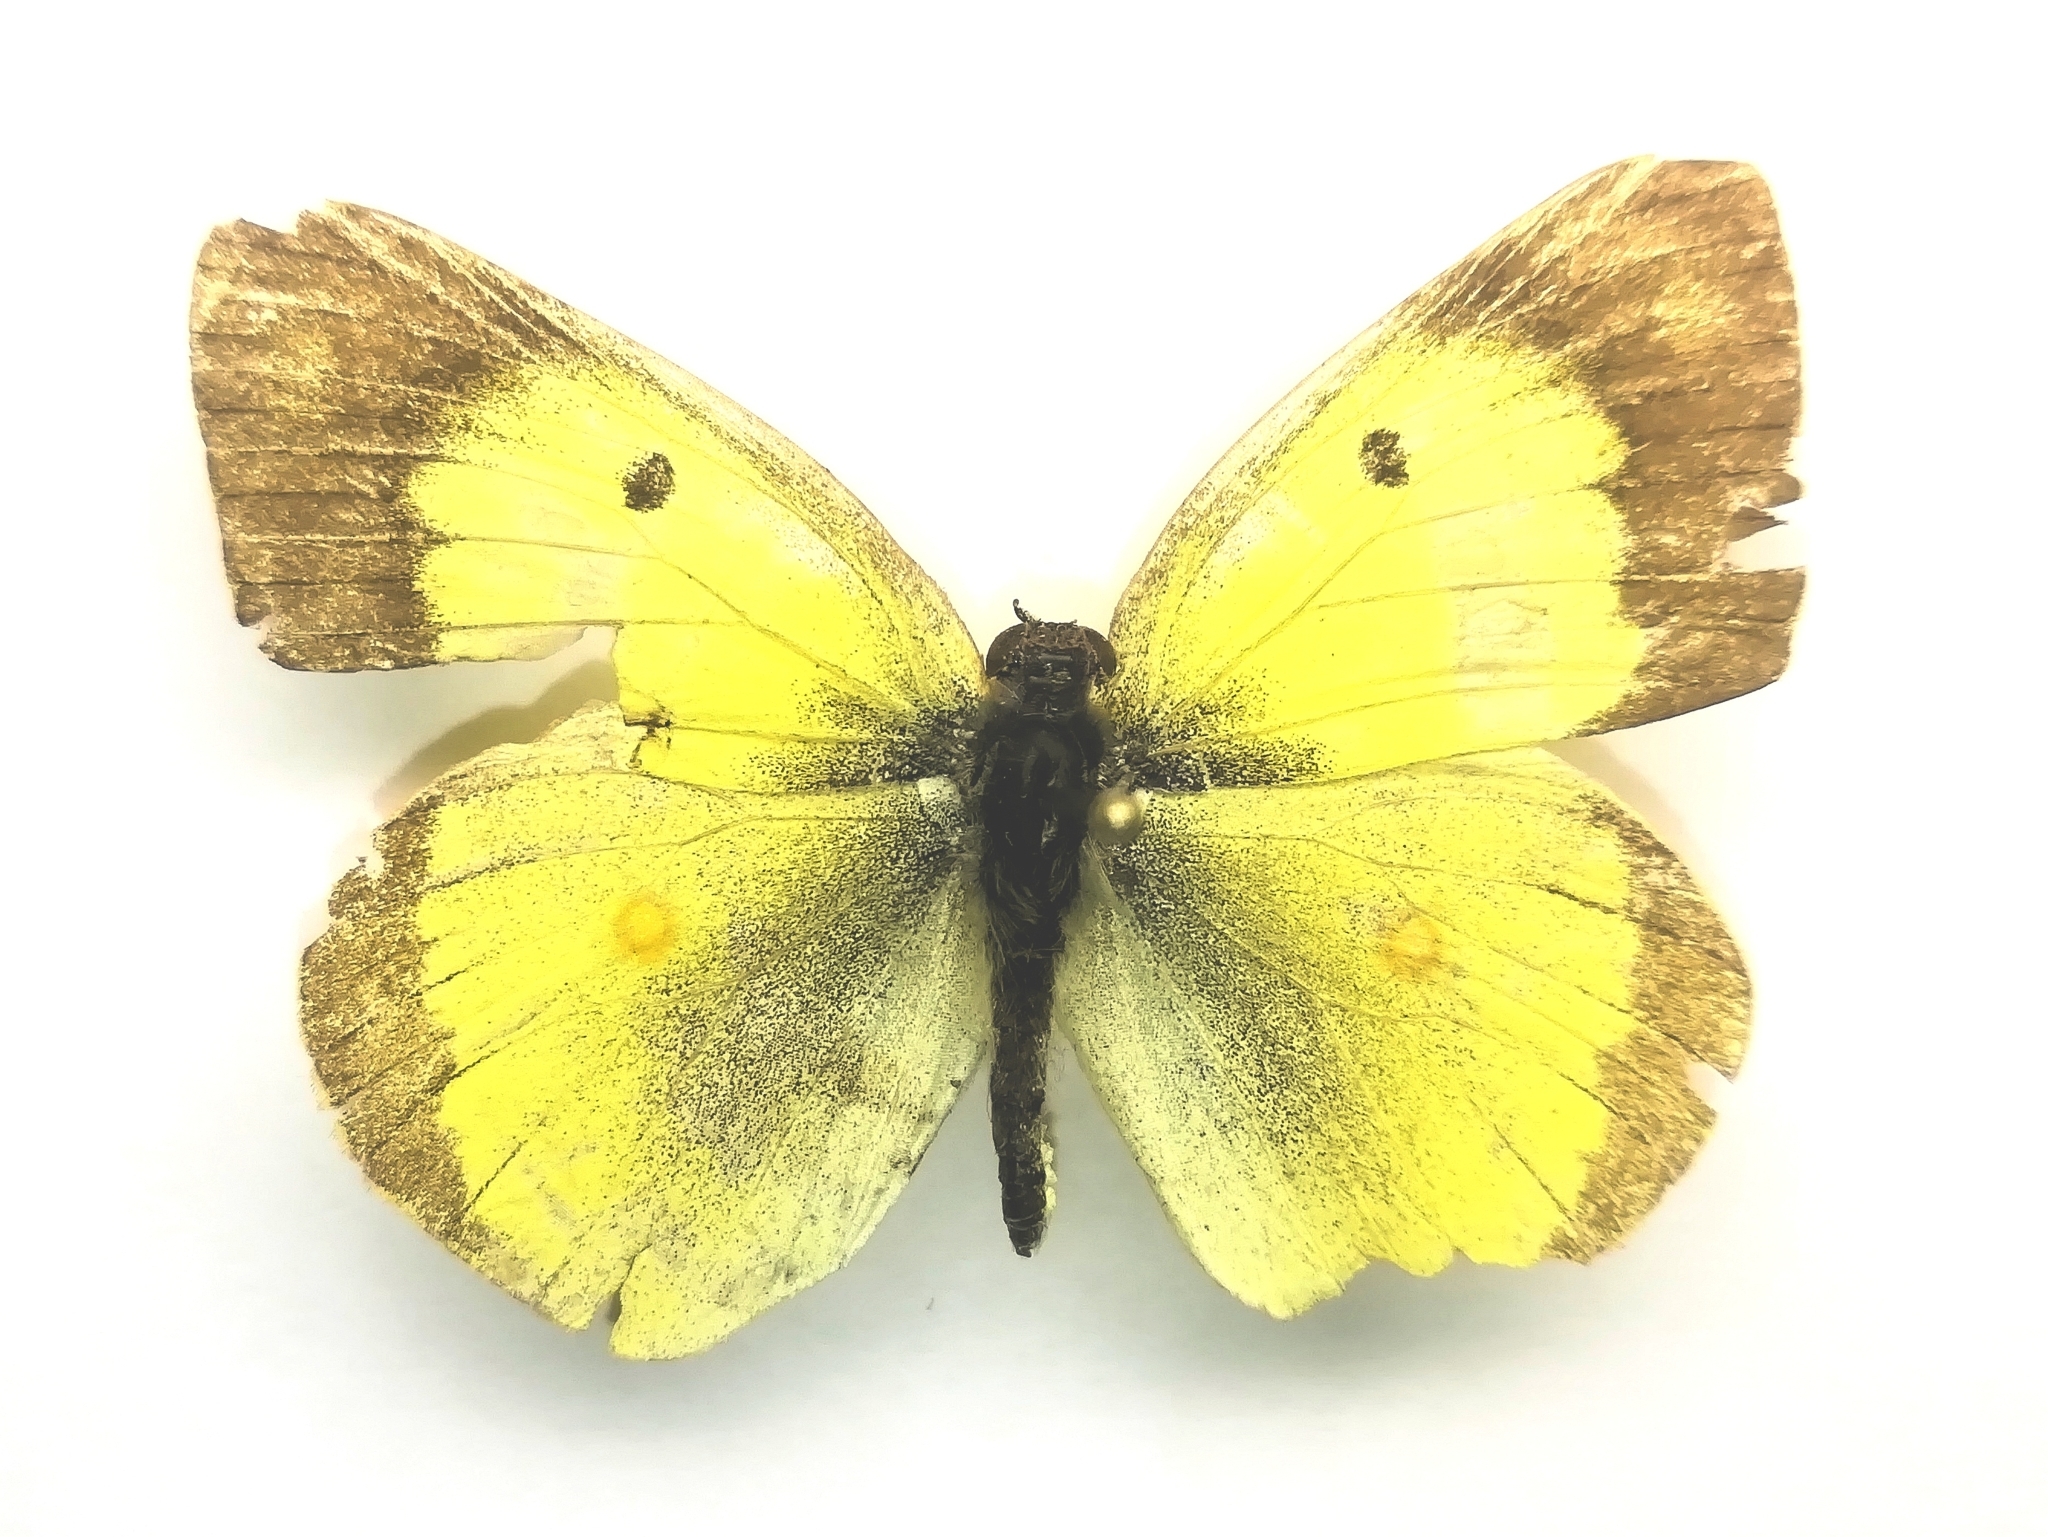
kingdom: Animalia
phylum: Arthropoda
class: Insecta
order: Lepidoptera
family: Pieridae
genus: Colias
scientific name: Colias erate
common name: Eastern pale clouded yellow
